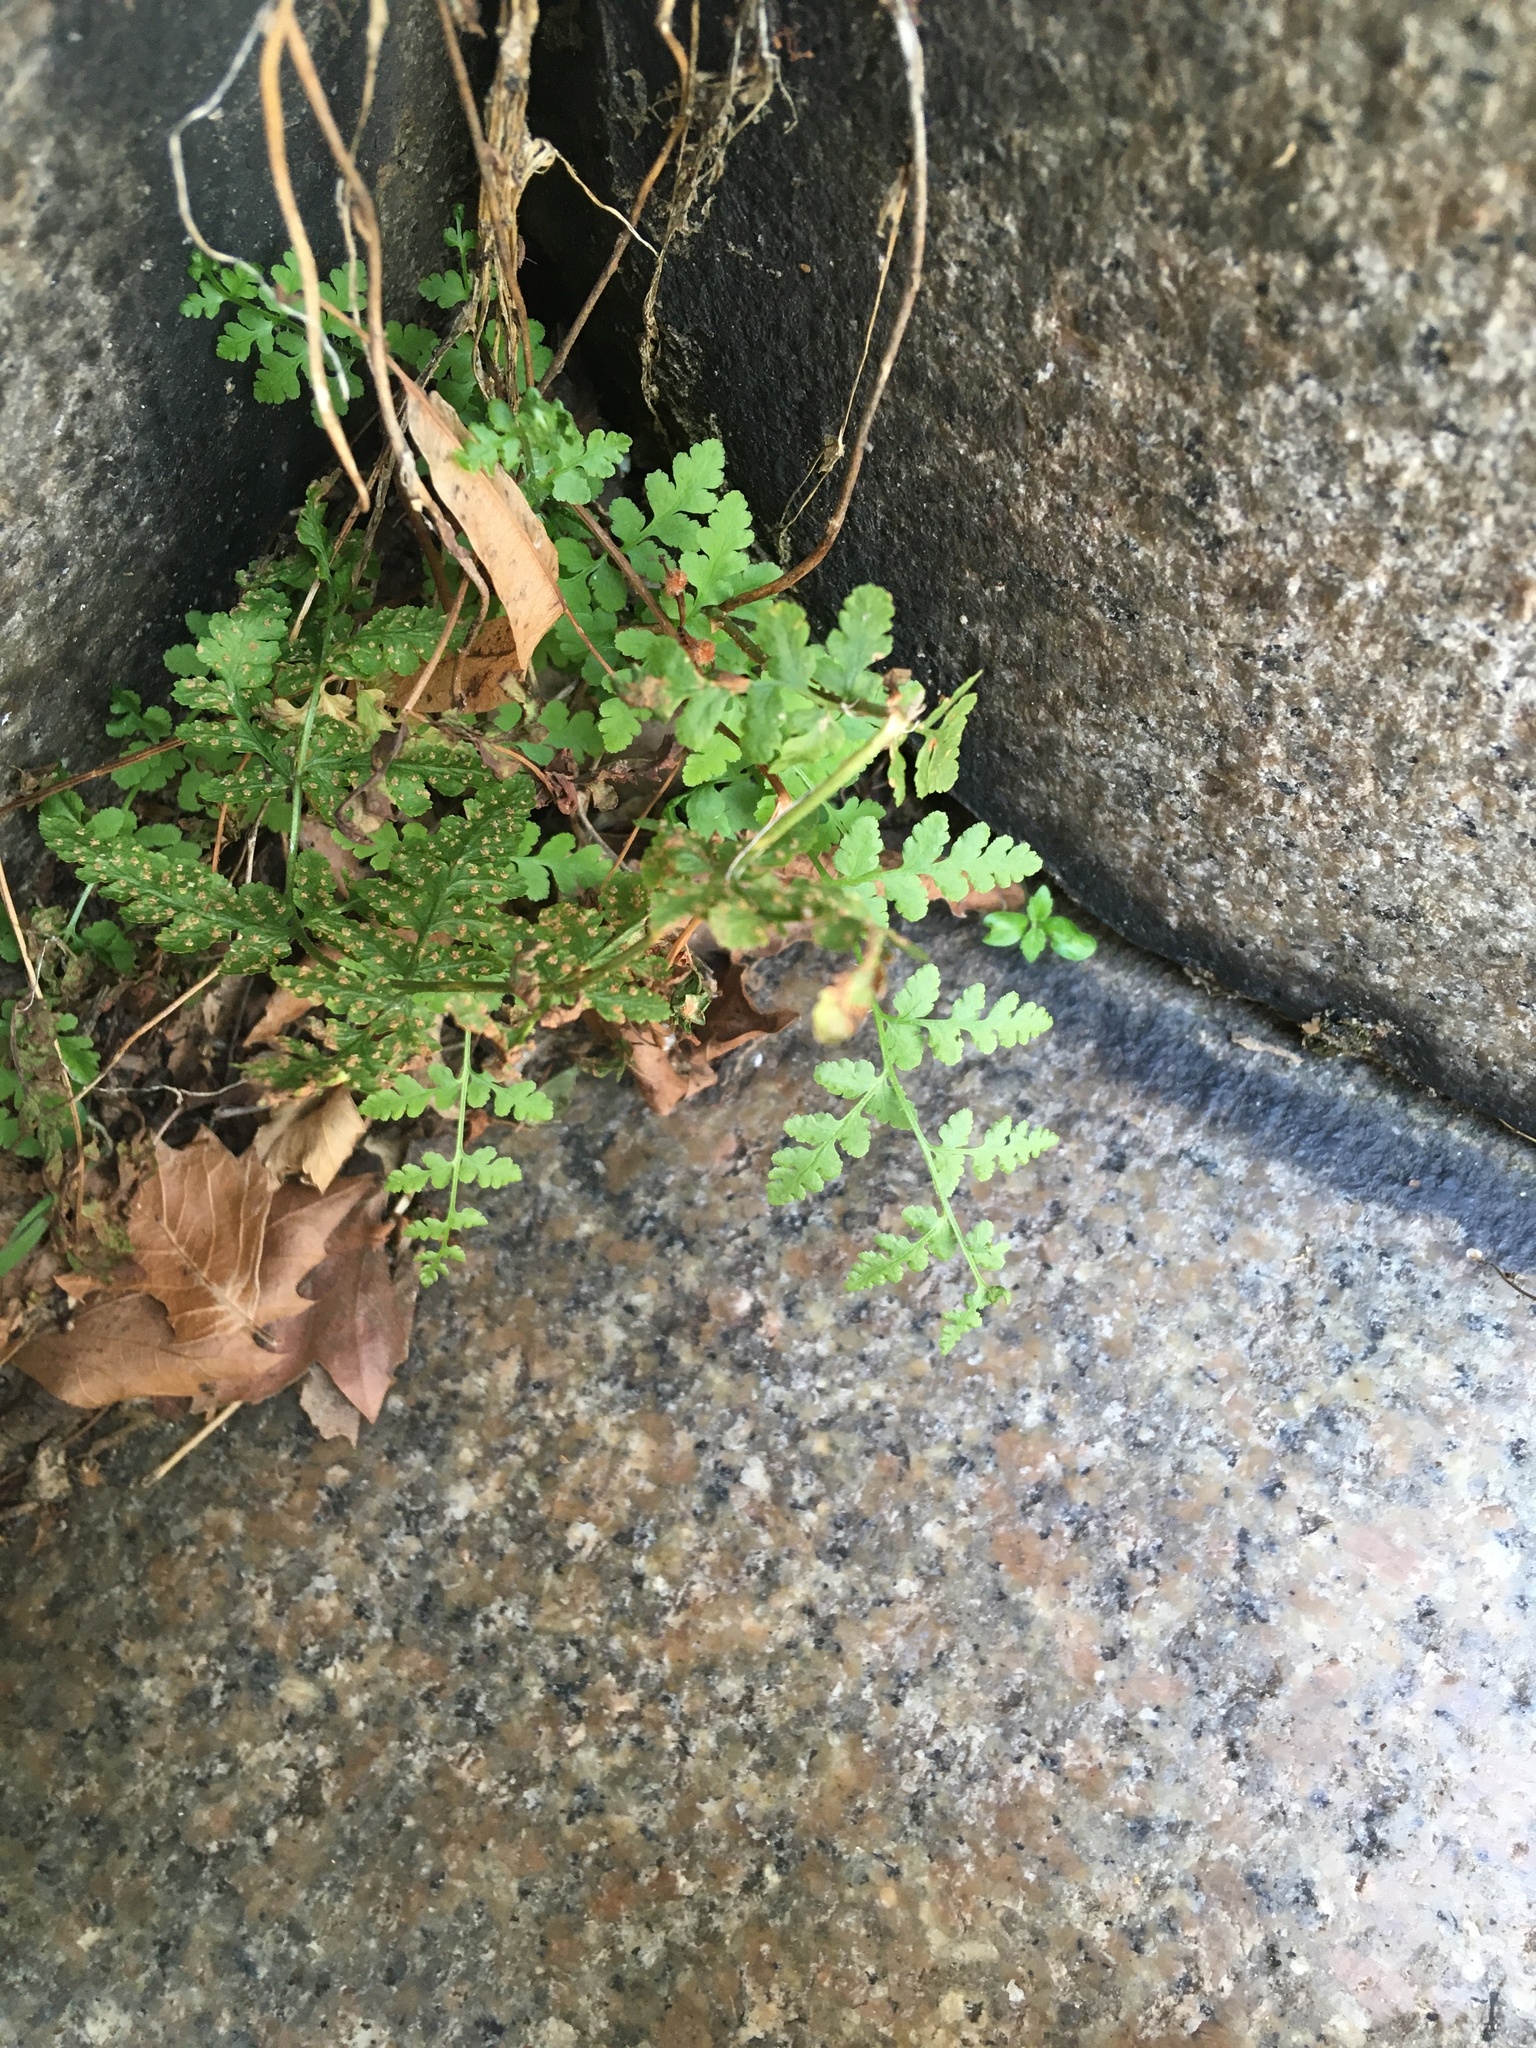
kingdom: Plantae
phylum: Tracheophyta
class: Polypodiopsida
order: Polypodiales
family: Woodsiaceae
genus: Physematium
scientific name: Physematium obtusum
